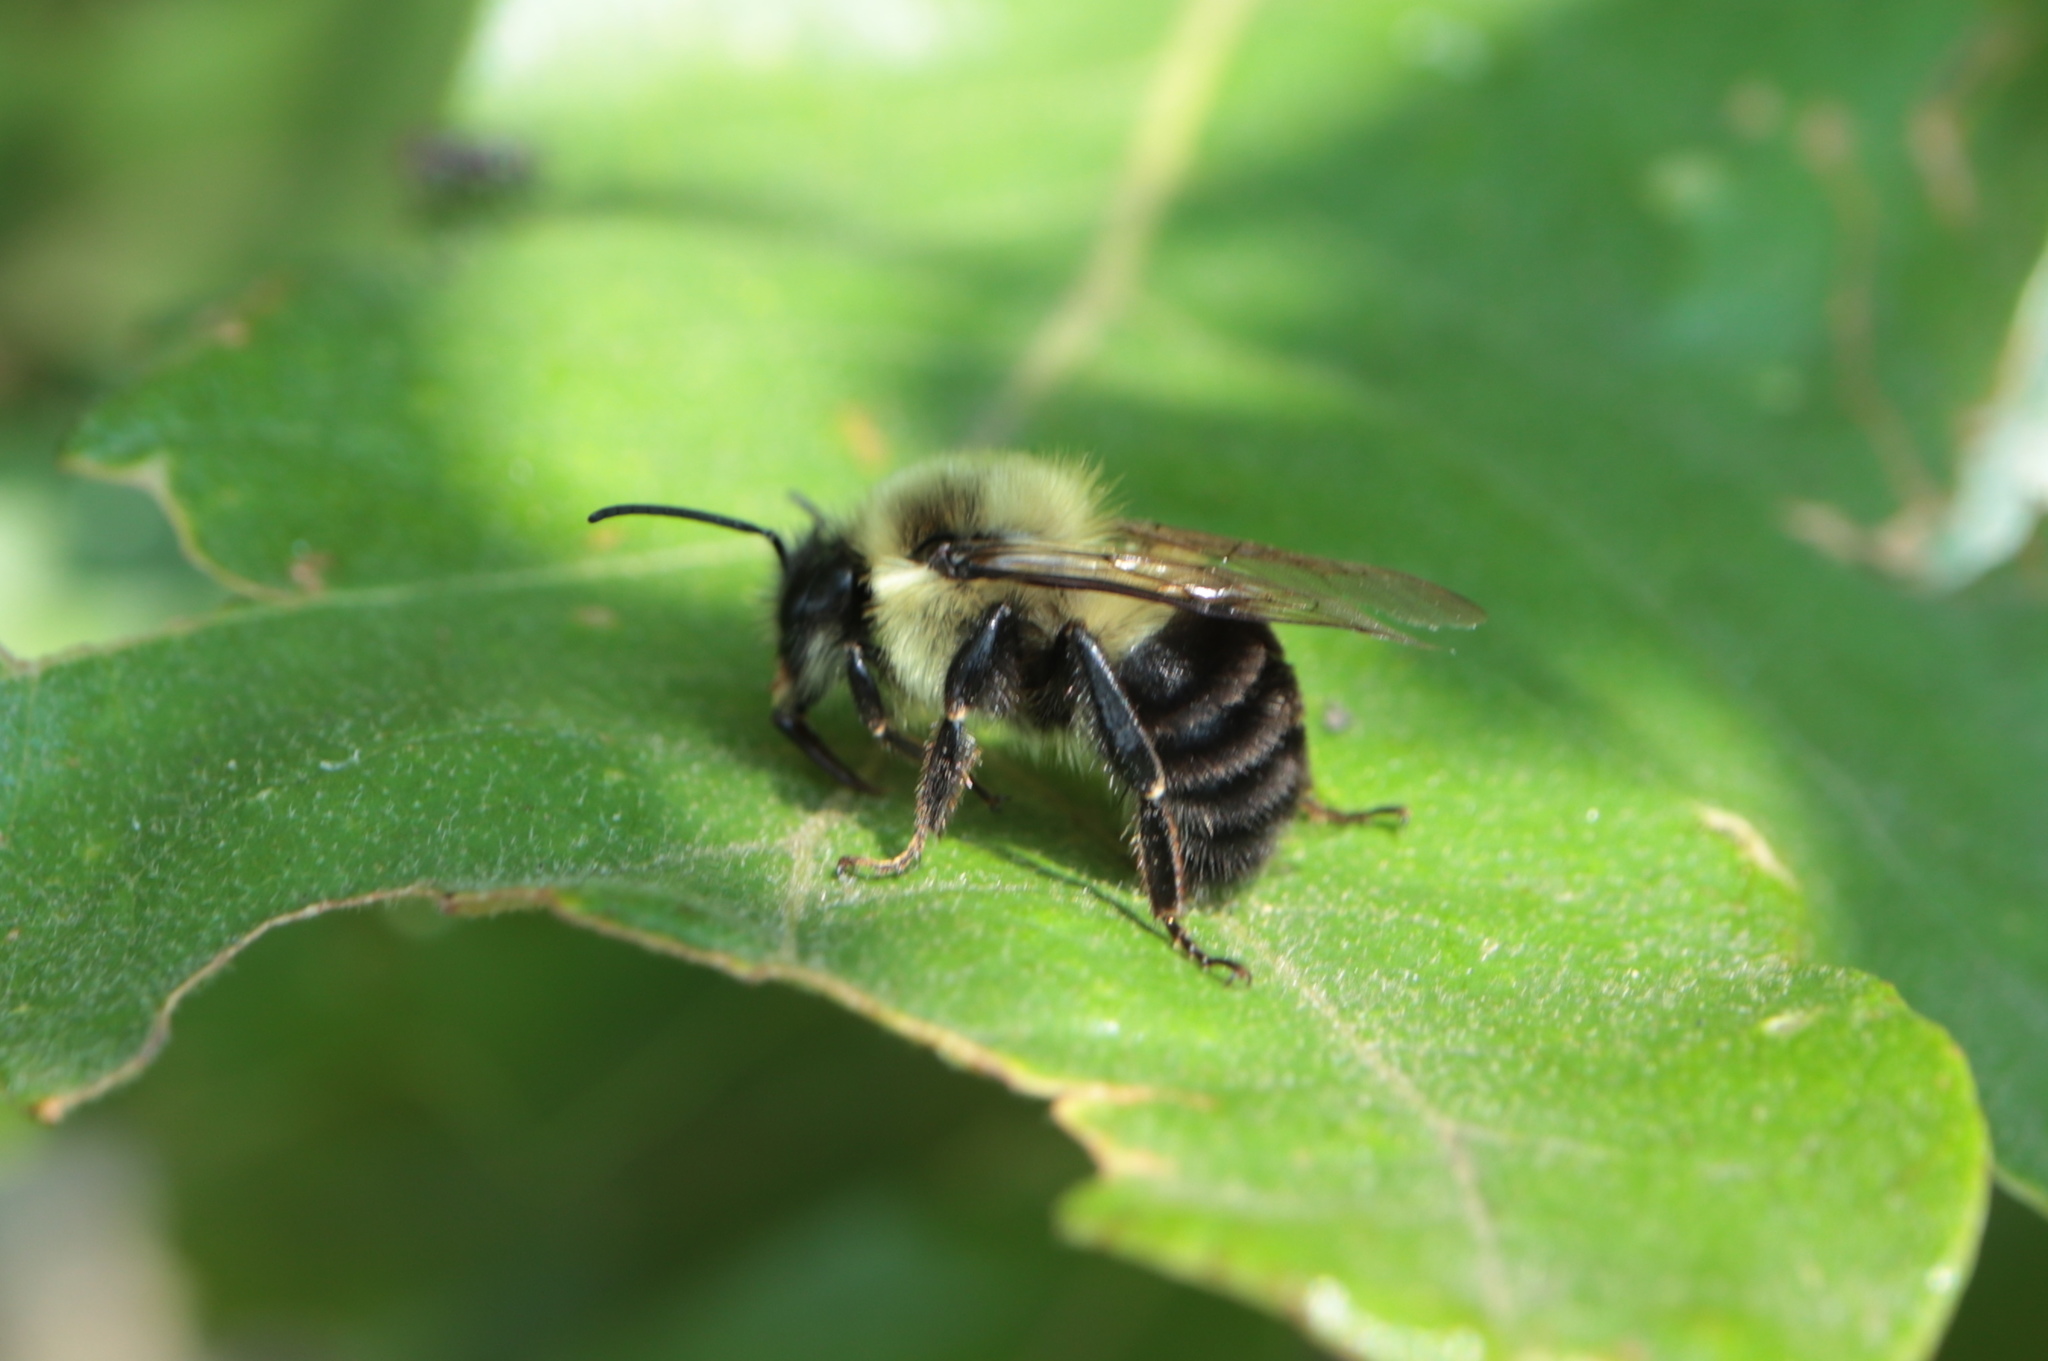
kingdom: Animalia
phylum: Arthropoda
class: Insecta
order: Hymenoptera
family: Apidae
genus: Bombus
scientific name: Bombus impatiens
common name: Common eastern bumble bee
